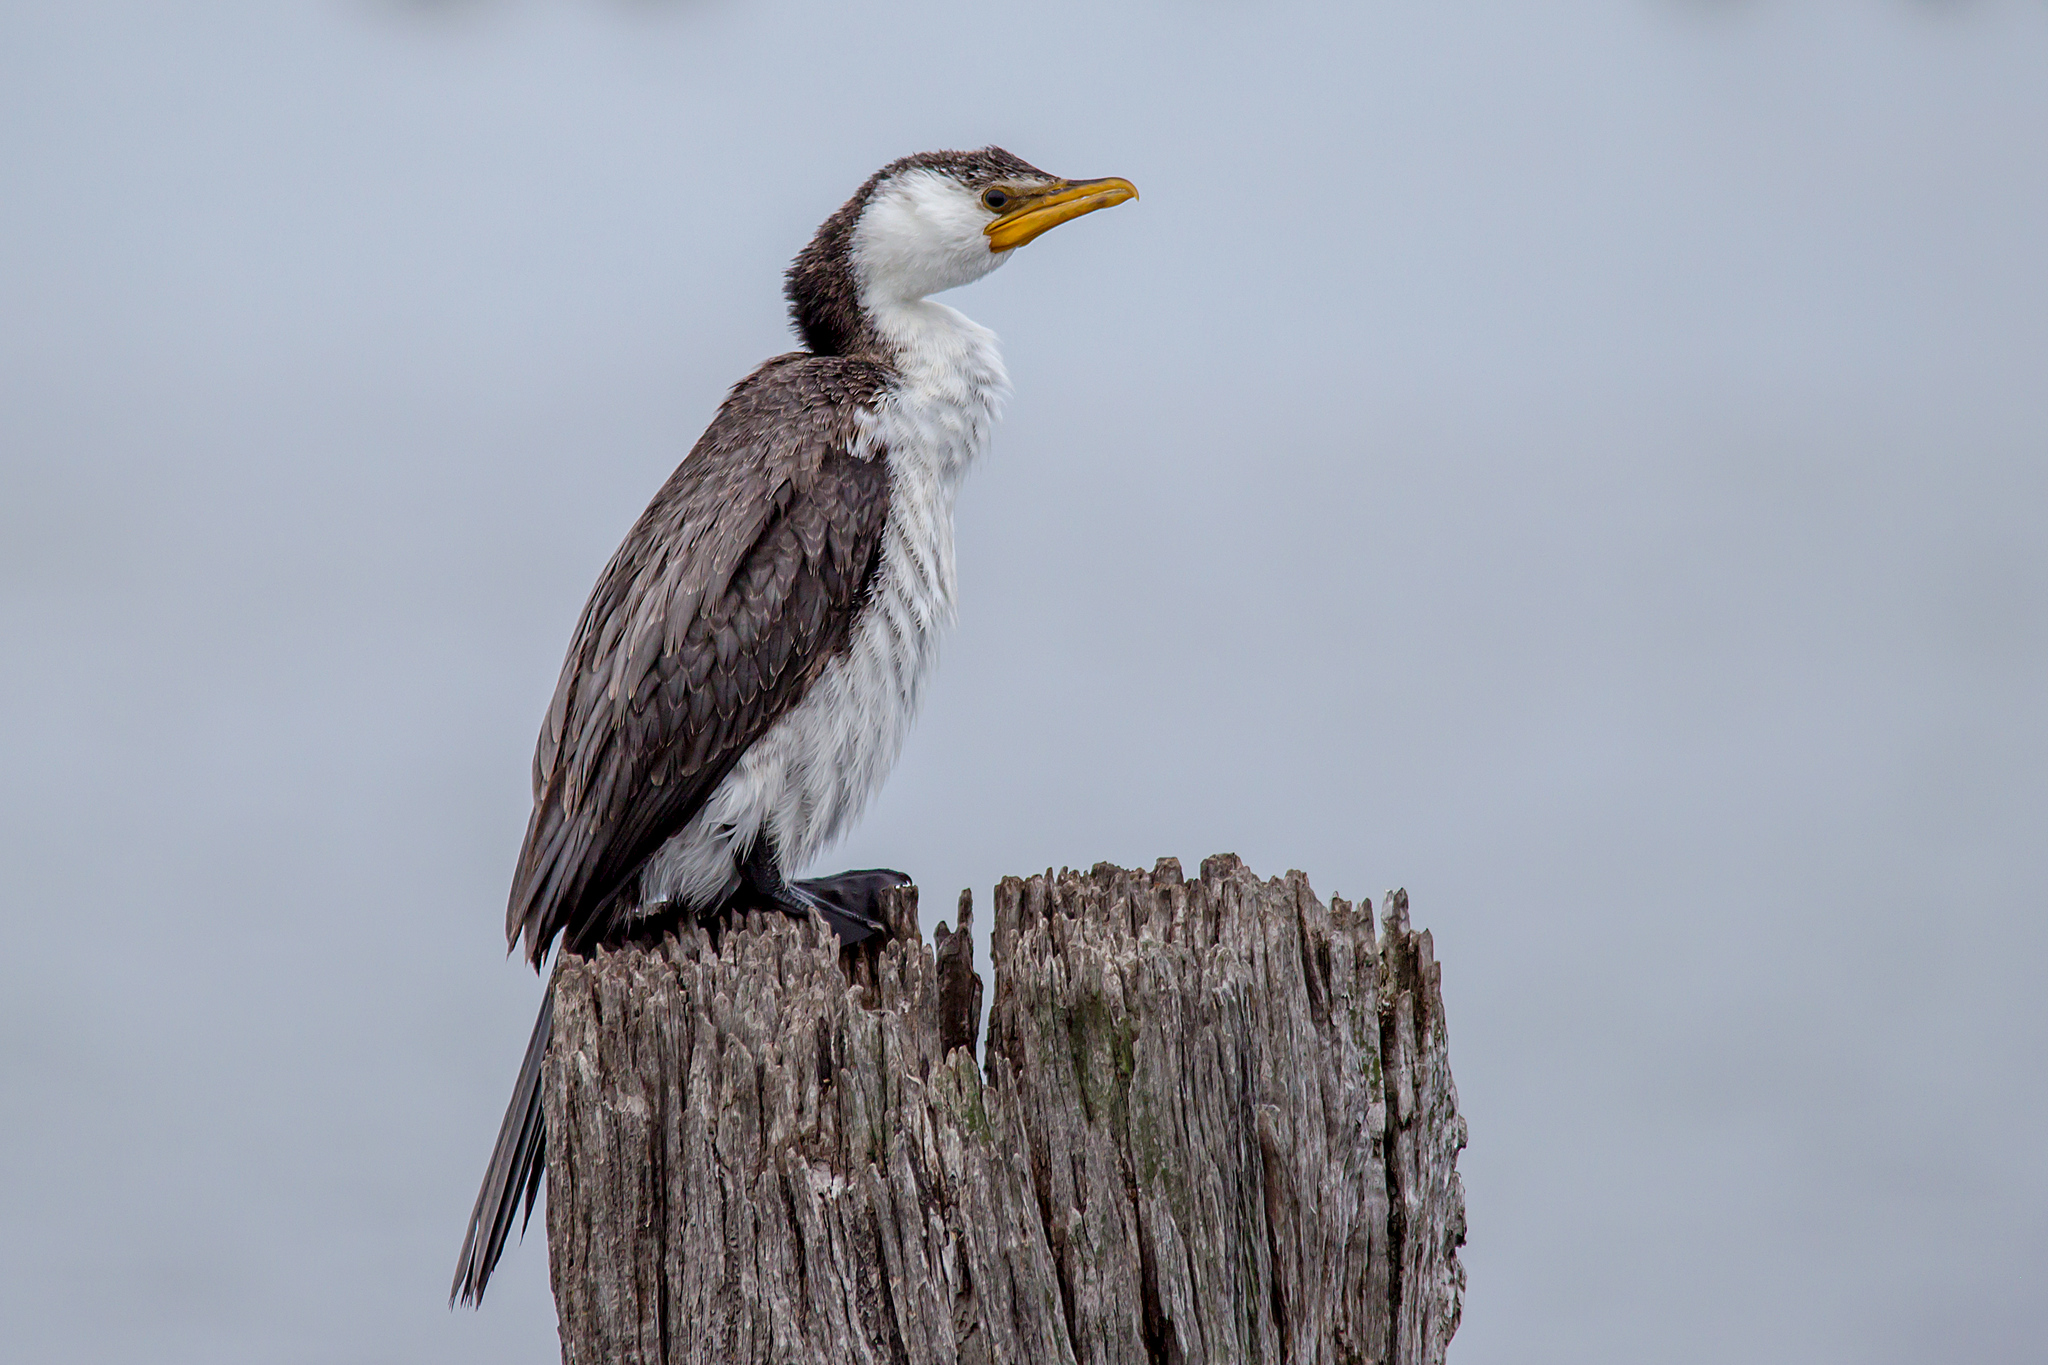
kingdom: Animalia
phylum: Chordata
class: Aves
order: Suliformes
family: Phalacrocoracidae
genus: Microcarbo
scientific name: Microcarbo melanoleucos
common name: Little pied cormorant
